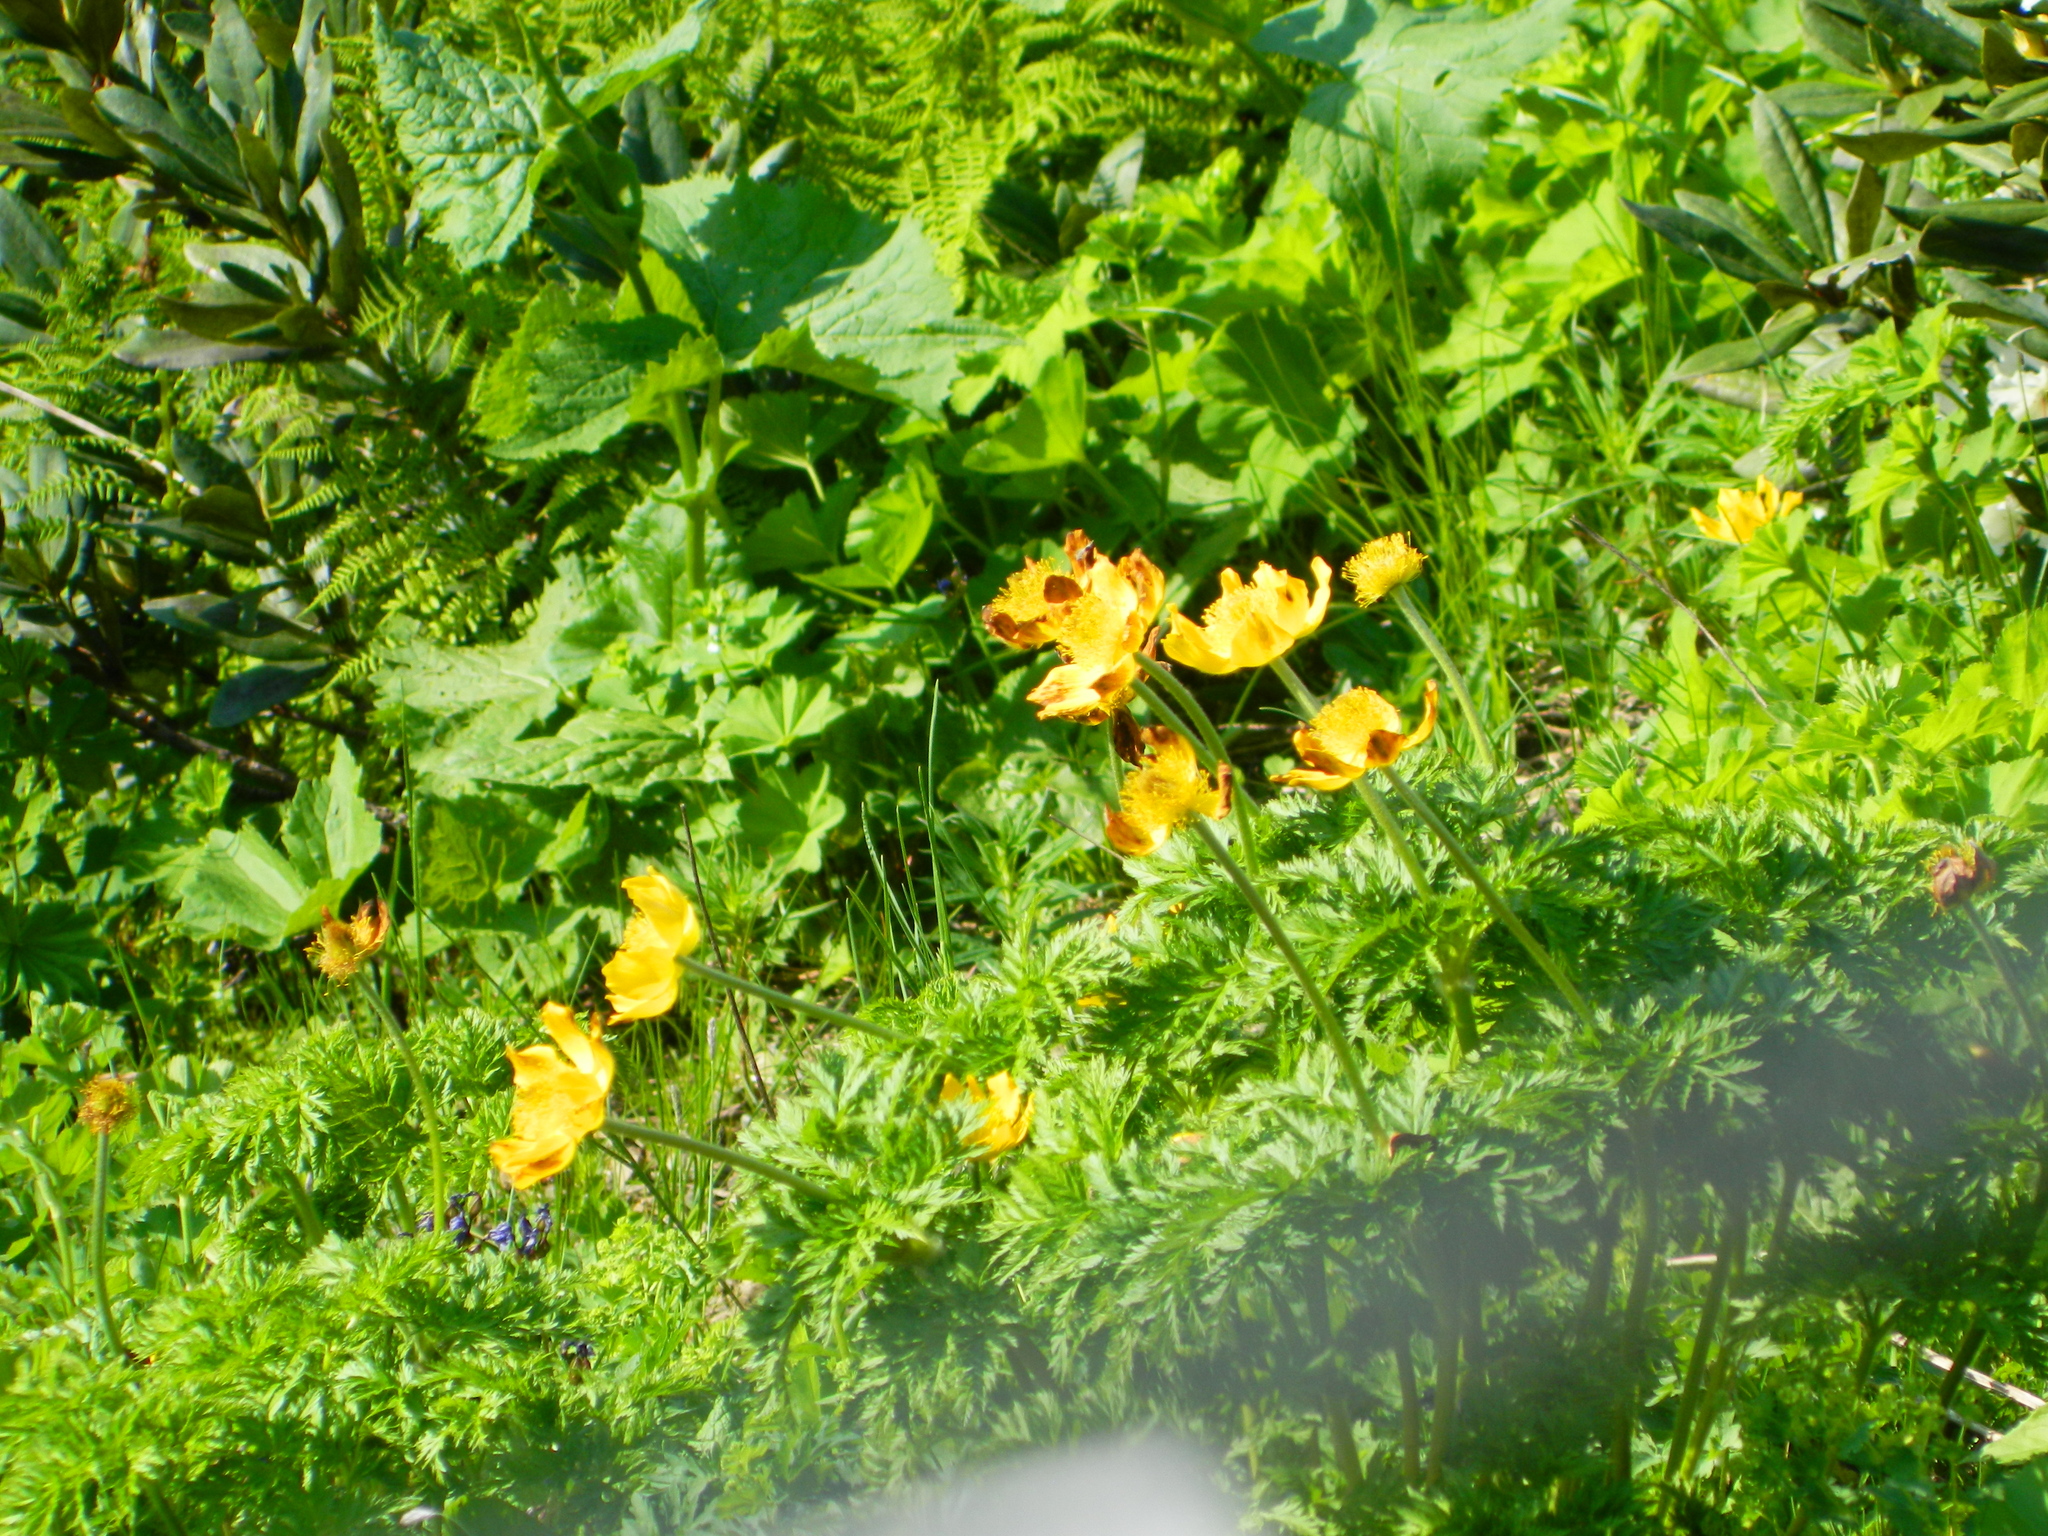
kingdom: Plantae
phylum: Tracheophyta
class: Magnoliopsida
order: Ranunculales
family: Ranunculaceae
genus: Pulsatilla
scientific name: Pulsatilla aurea
